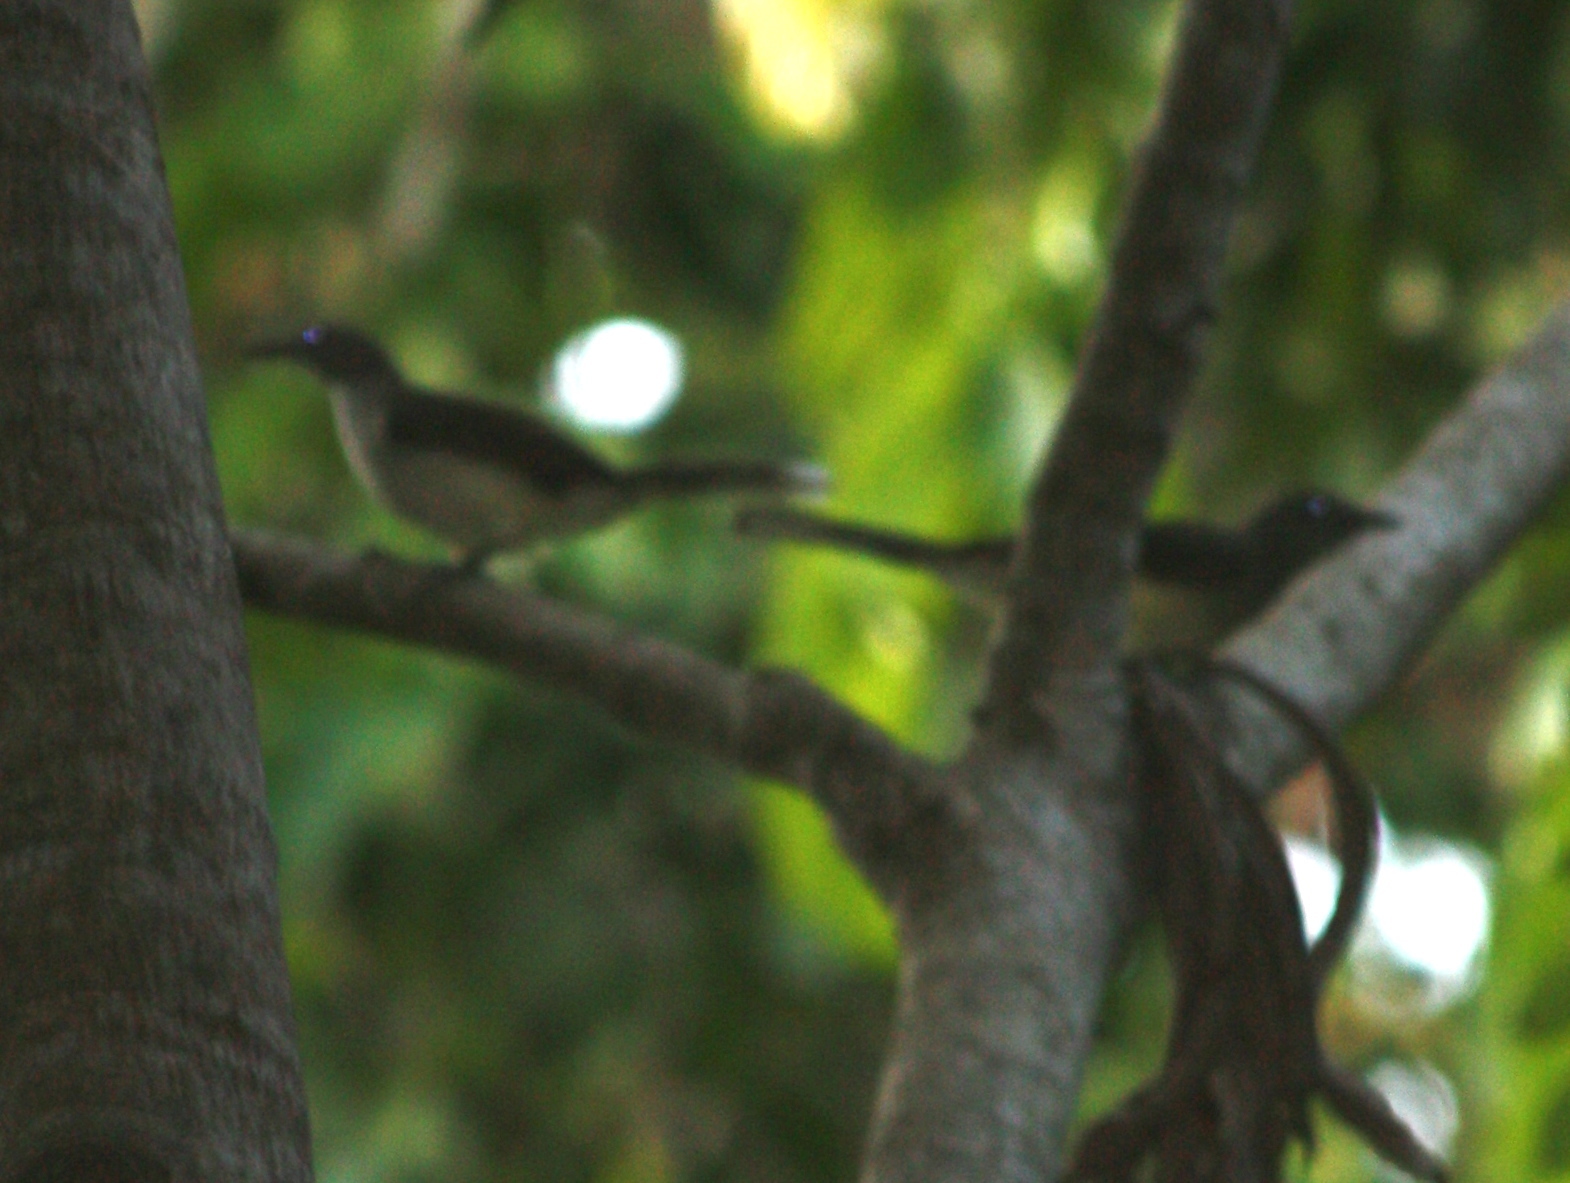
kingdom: Animalia
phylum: Chordata
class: Aves
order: Passeriformes
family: Pycnonotidae
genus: Thescelocichla
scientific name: Thescelocichla leucopleura
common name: Swamp palm bulbul
